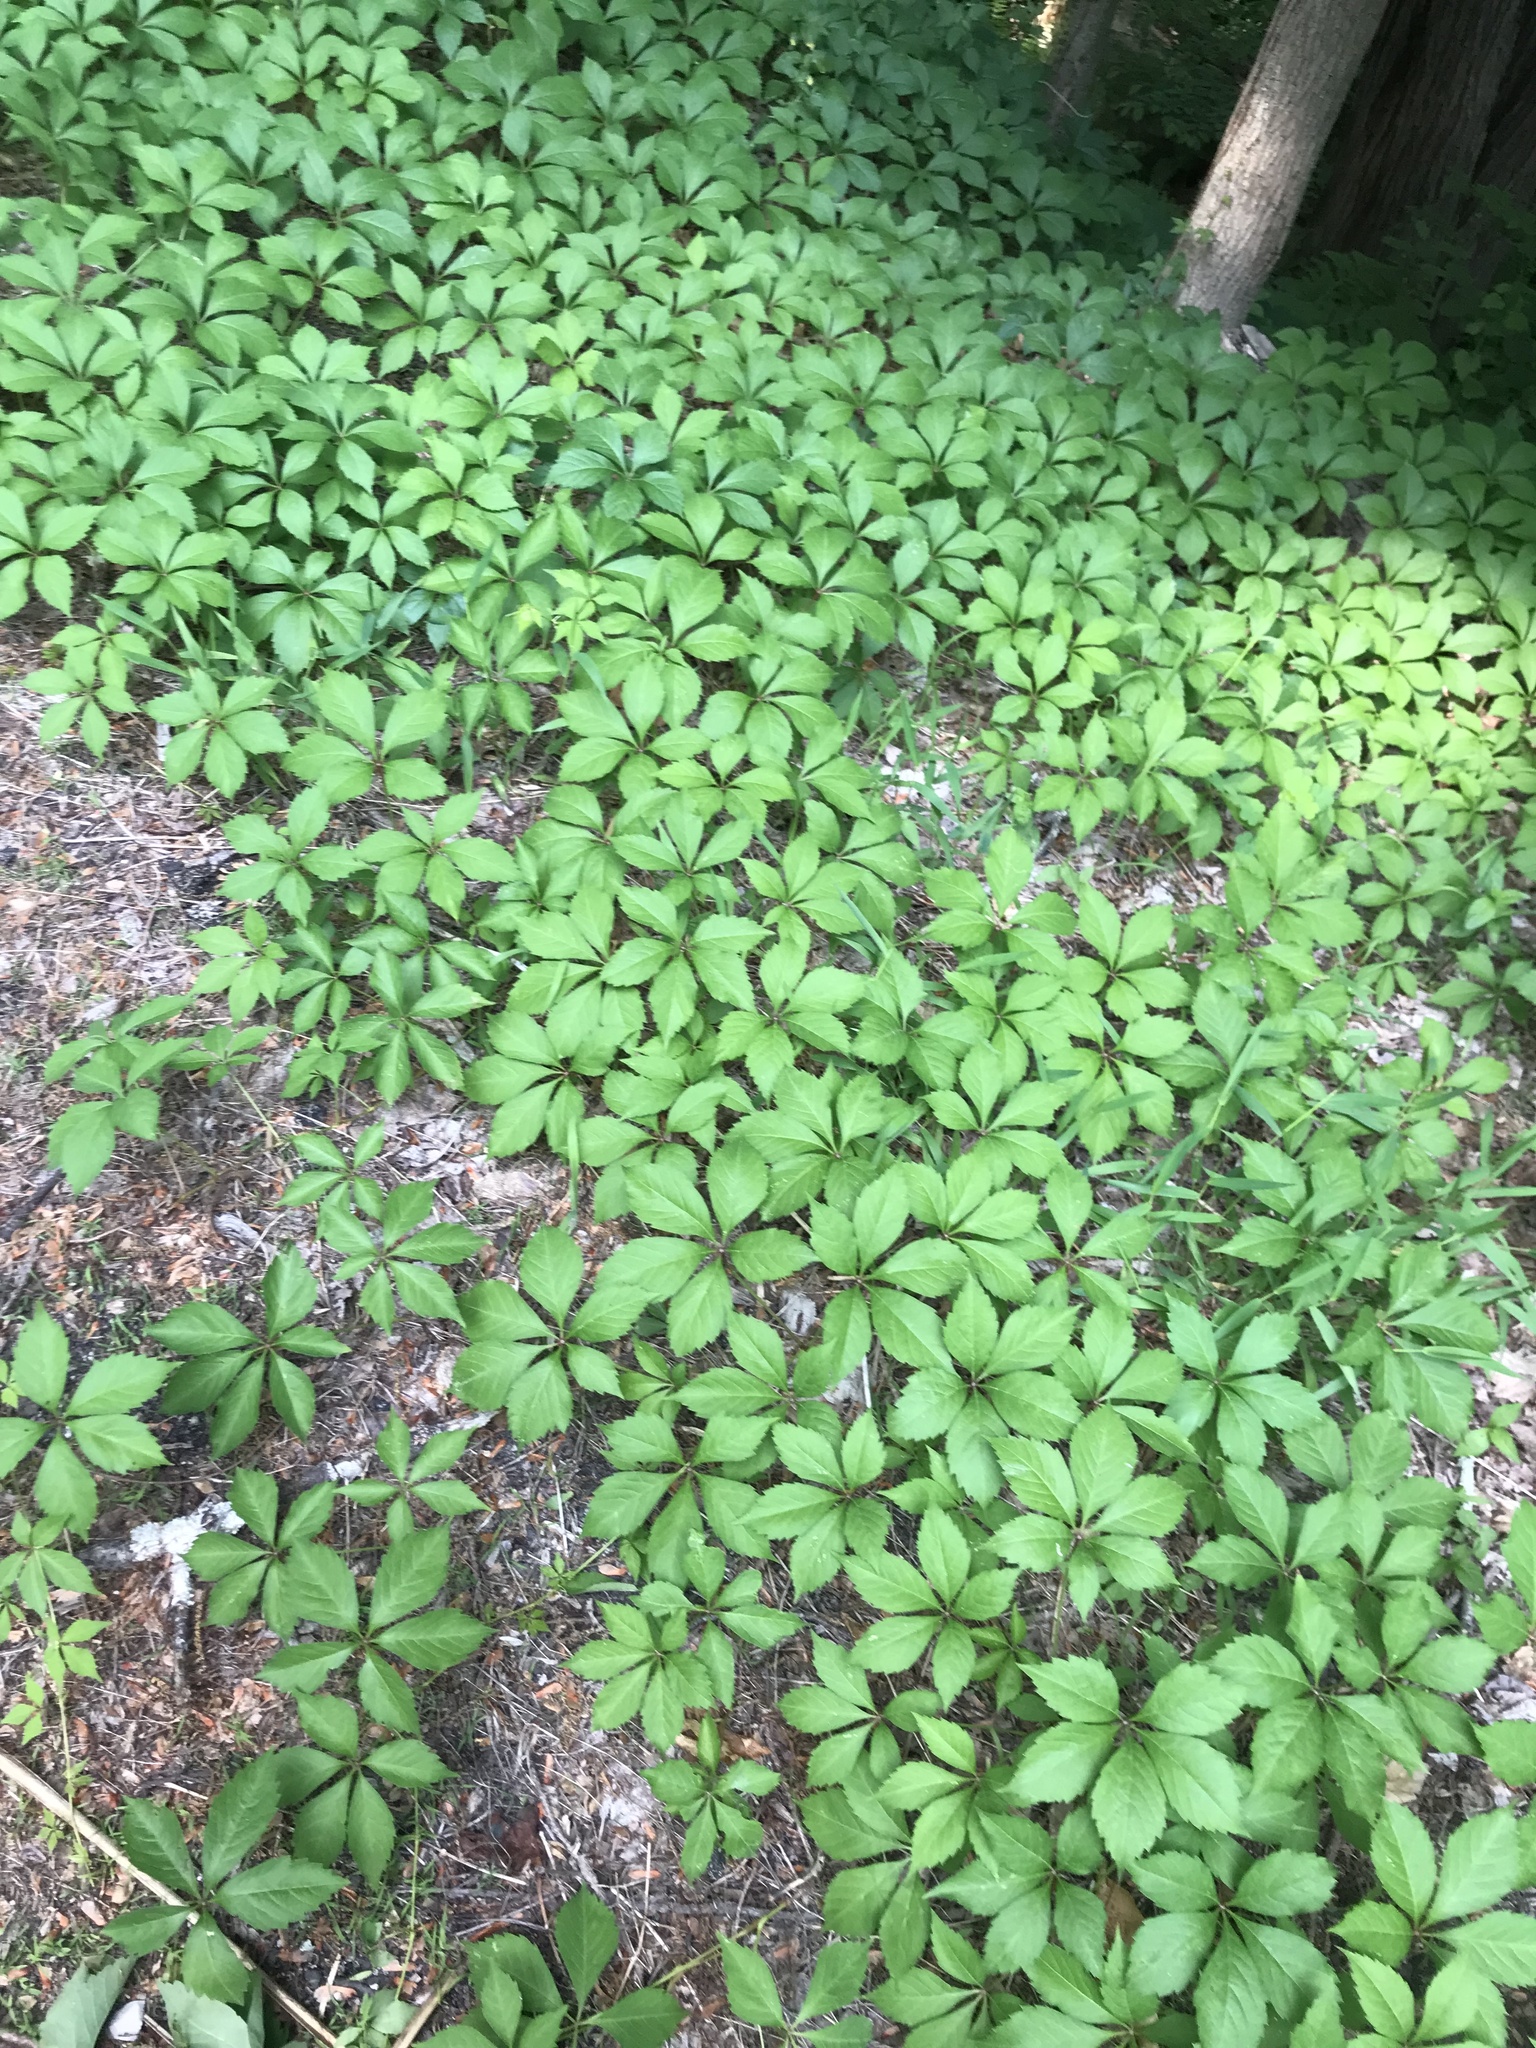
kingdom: Plantae
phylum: Tracheophyta
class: Magnoliopsida
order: Vitales
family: Vitaceae
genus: Parthenocissus
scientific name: Parthenocissus quinquefolia
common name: Virginia-creeper
